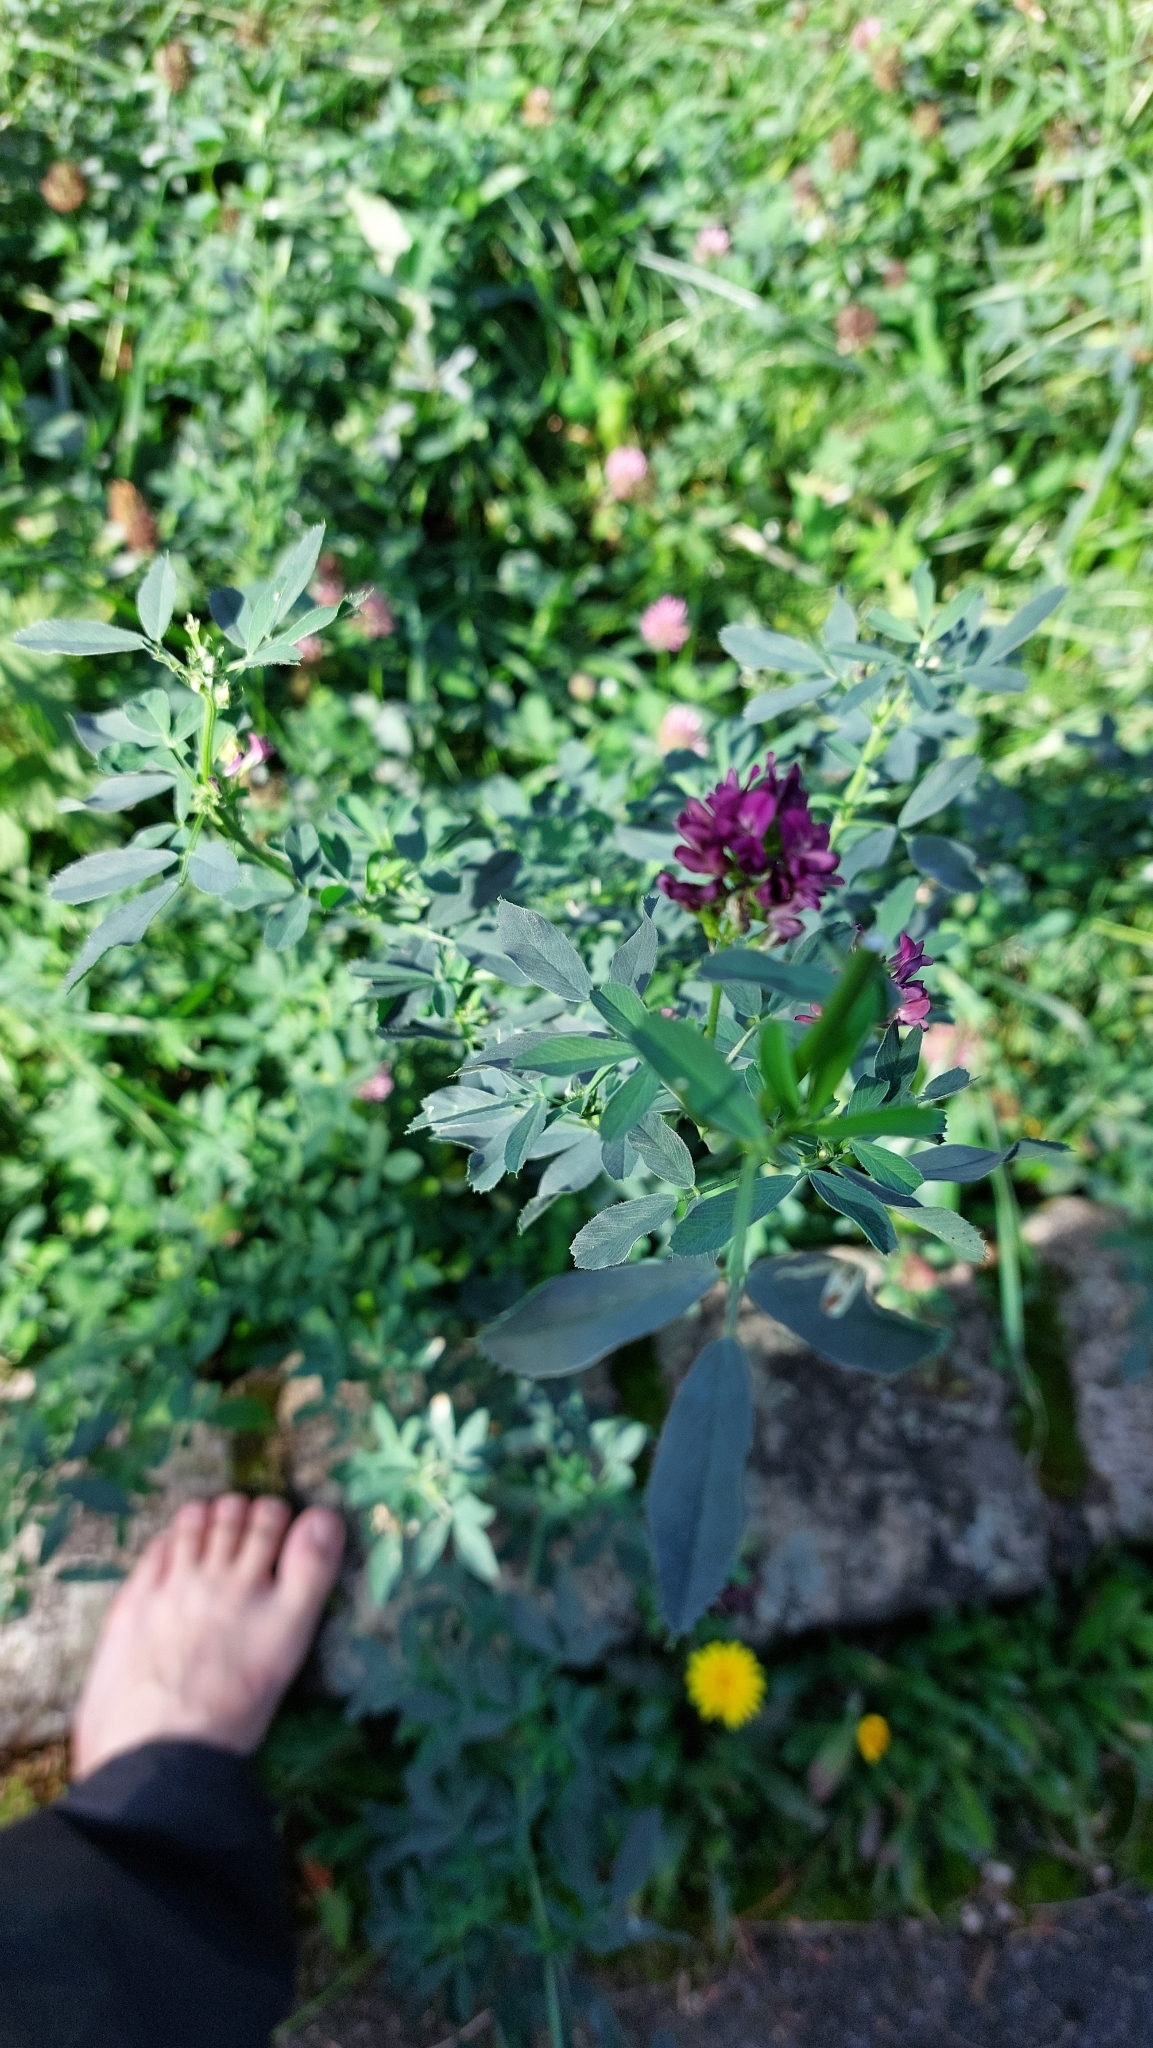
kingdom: Plantae
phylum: Tracheophyta
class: Magnoliopsida
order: Fabales
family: Fabaceae
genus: Medicago
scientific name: Medicago sativa
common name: Alfalfa
